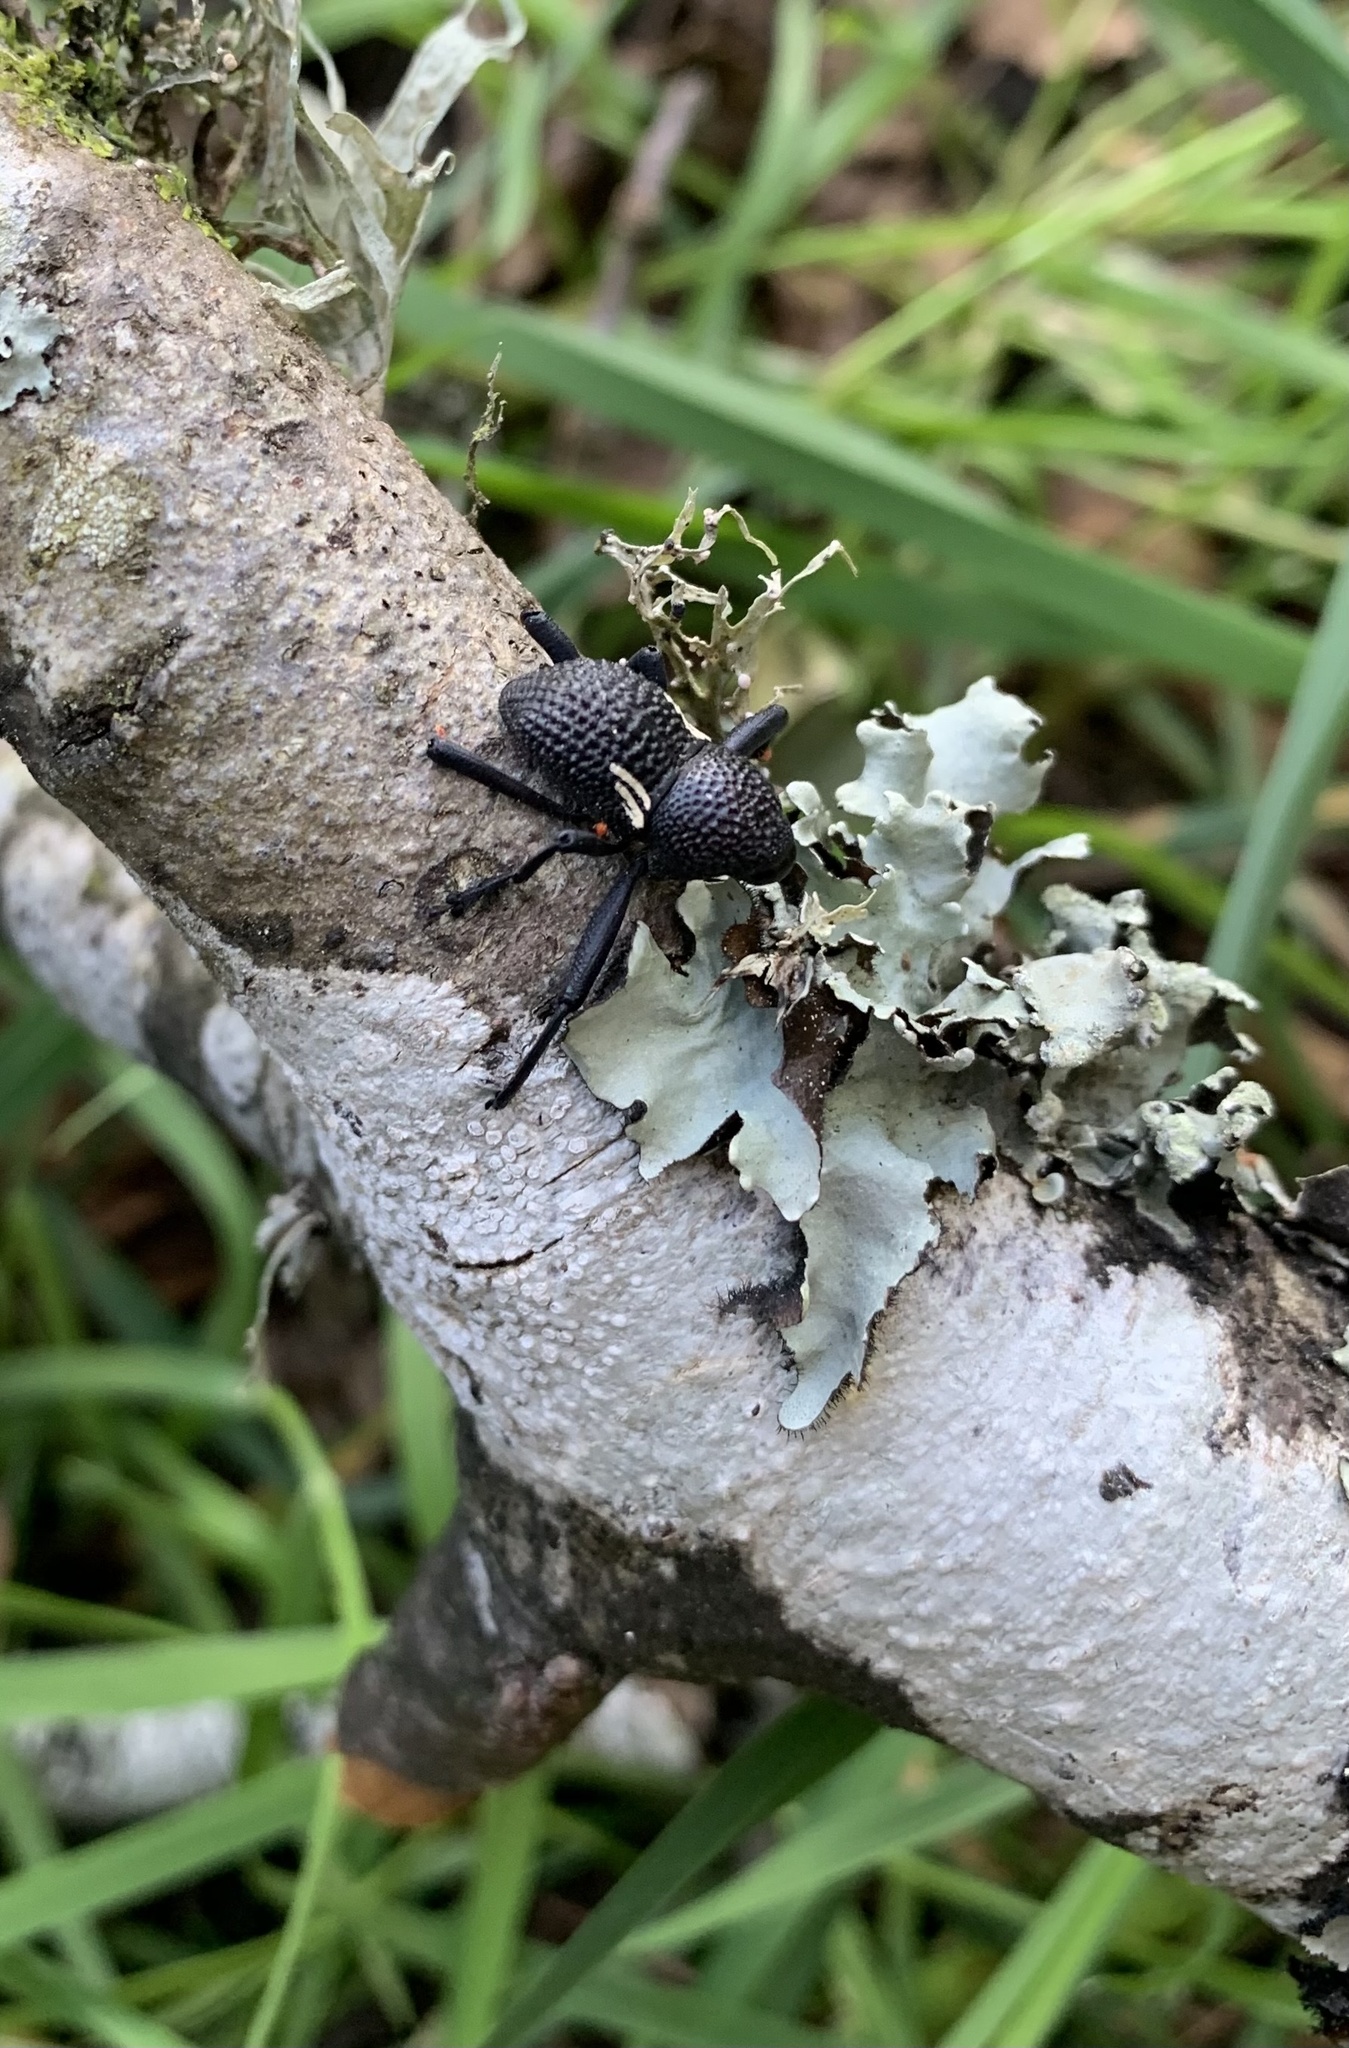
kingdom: Animalia
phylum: Arthropoda
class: Insecta
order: Coleoptera
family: Curculionidae
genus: Rhyephenes
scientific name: Rhyephenes humeralis
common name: Araè±ita chilena del pino
